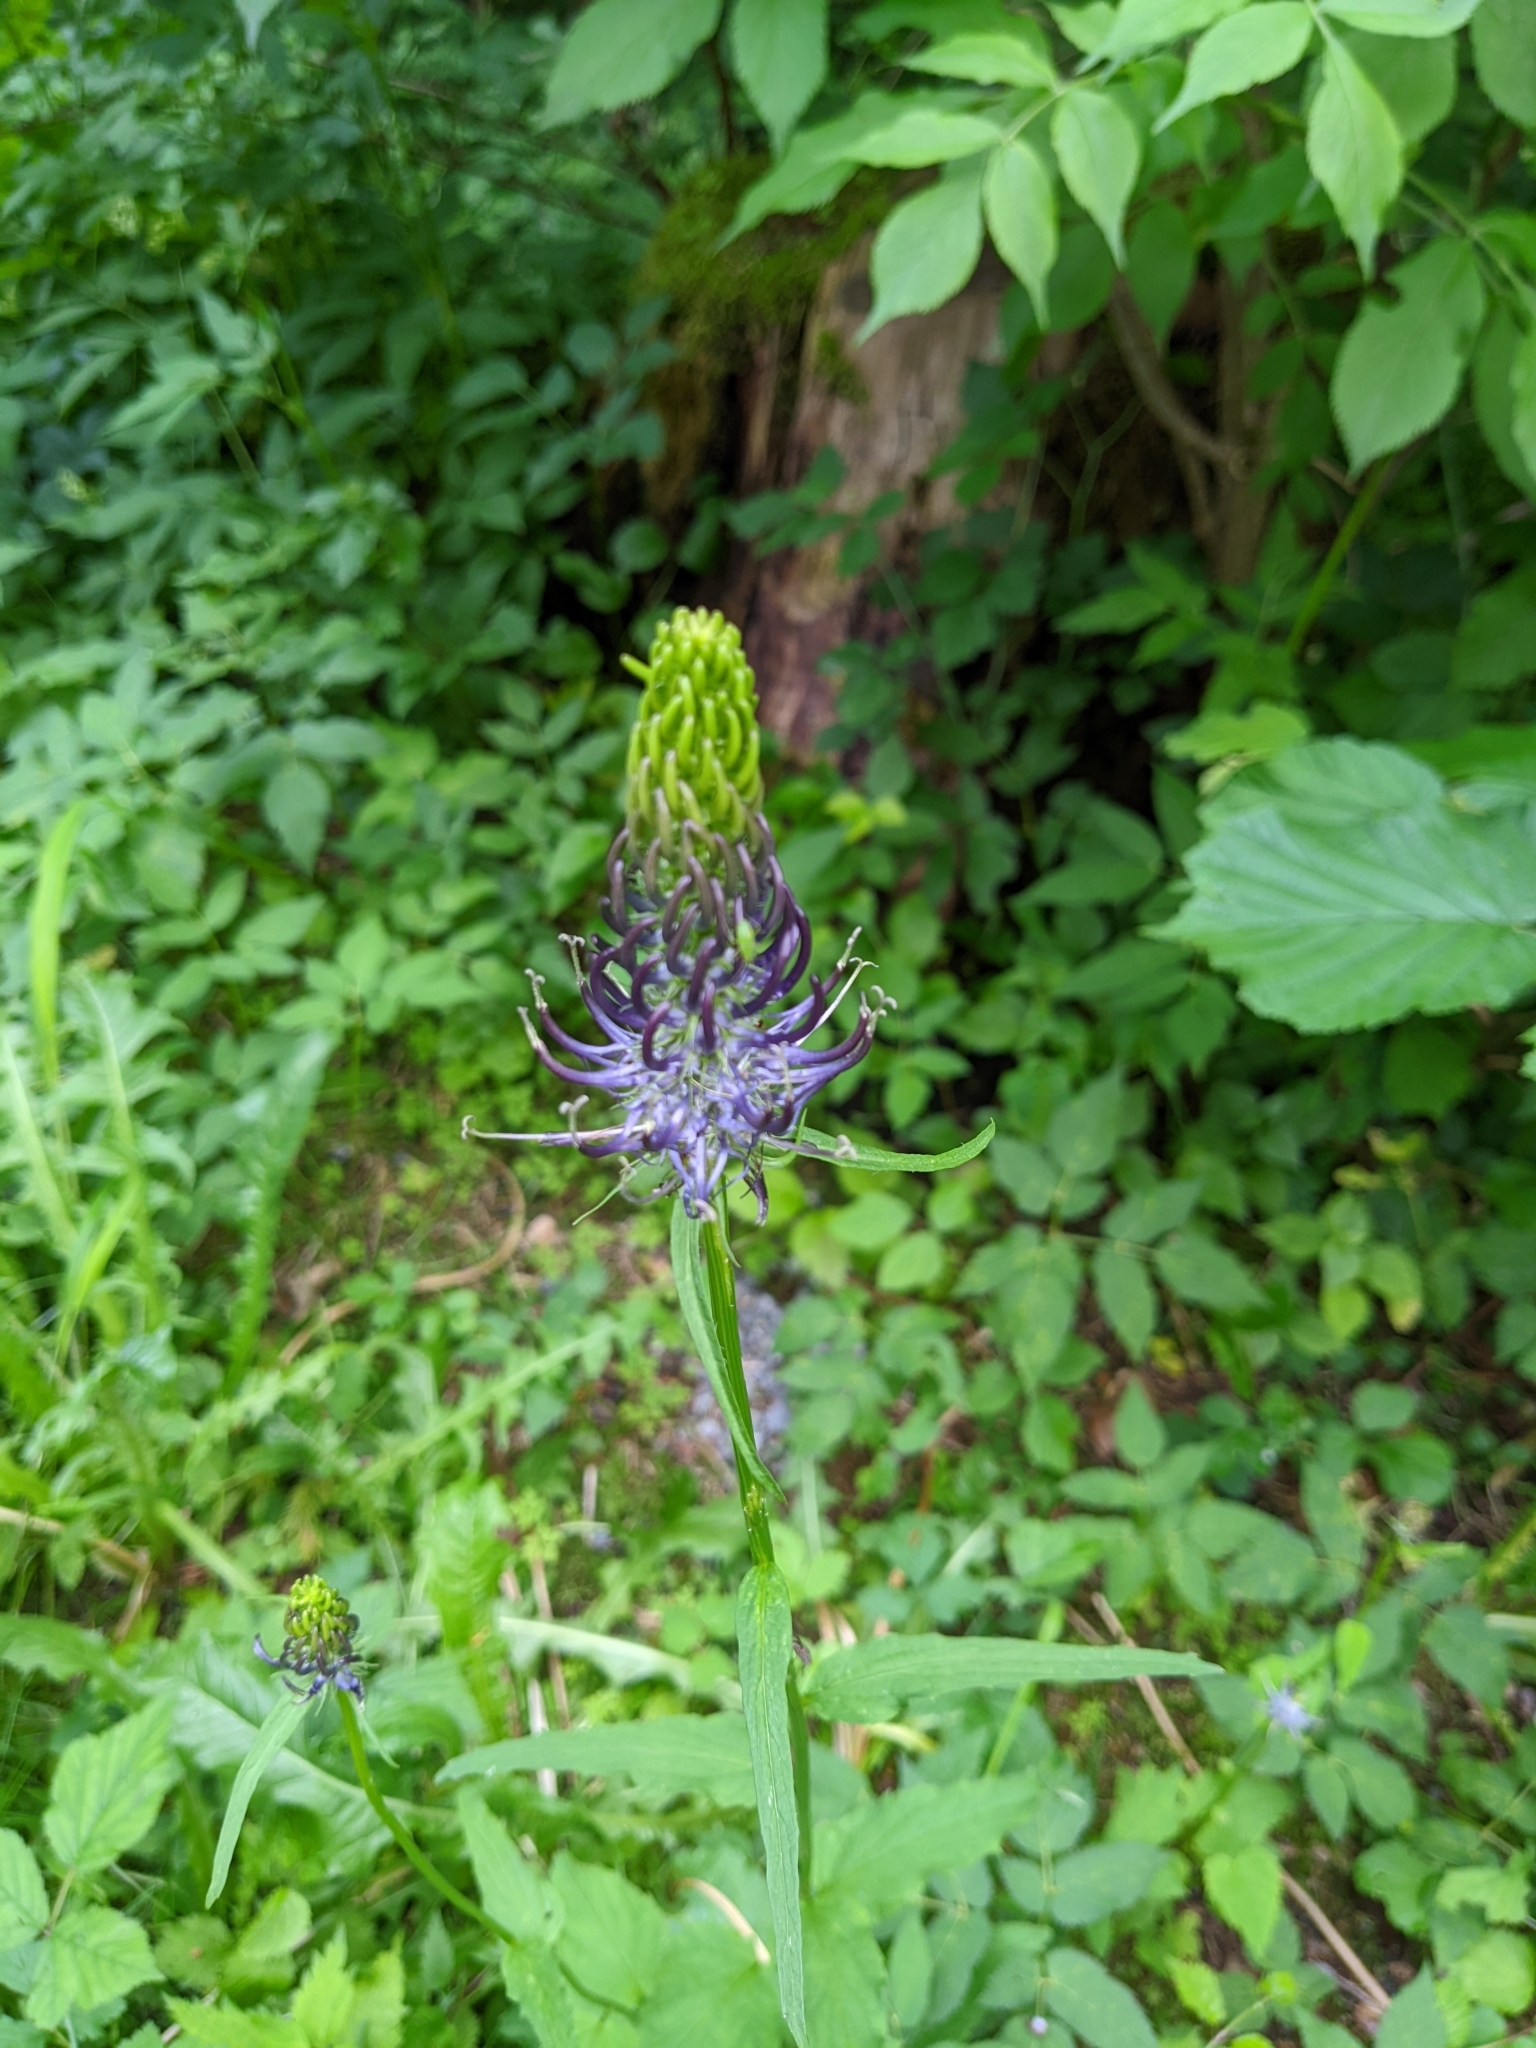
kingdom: Plantae
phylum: Tracheophyta
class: Magnoliopsida
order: Asterales
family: Campanulaceae
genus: Phyteuma
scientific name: Phyteuma ovatum
